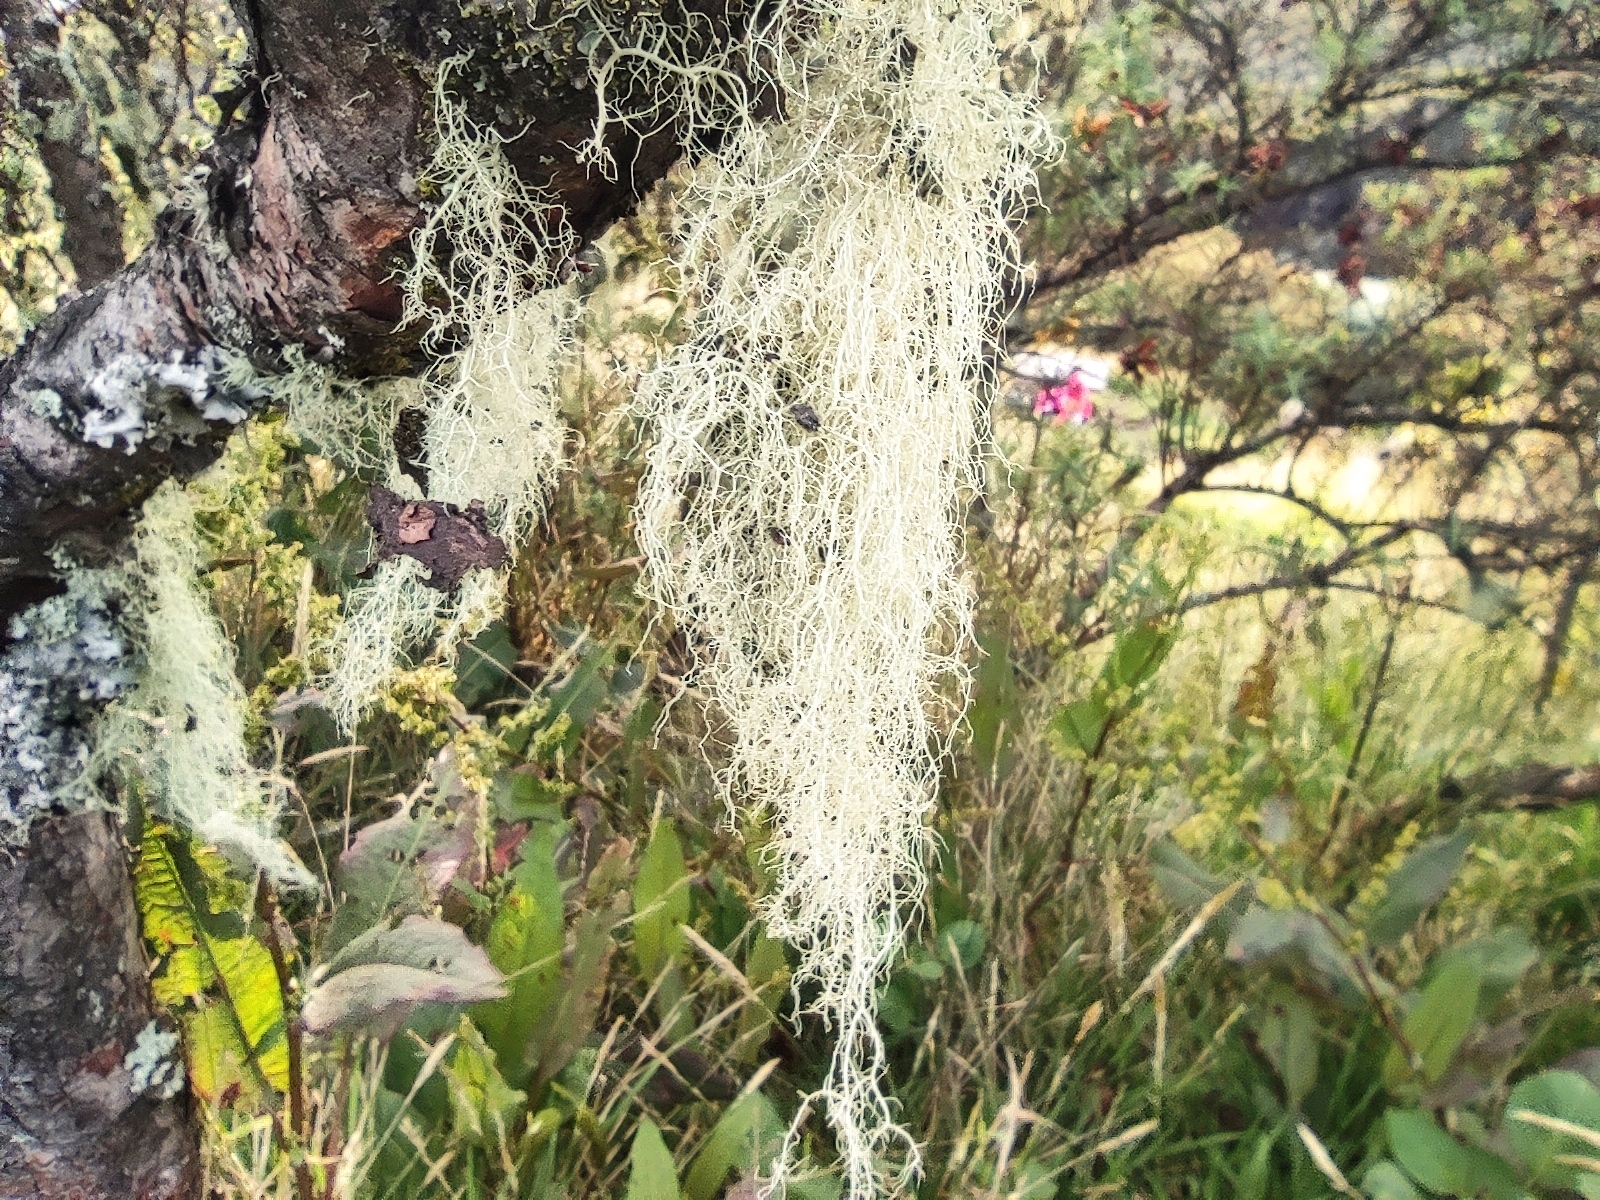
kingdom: Fungi
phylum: Ascomycota
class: Lecanoromycetes
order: Lecanorales
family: Parmeliaceae
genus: Usnea
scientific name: Usnea barbata
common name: Old man's beard lichen
